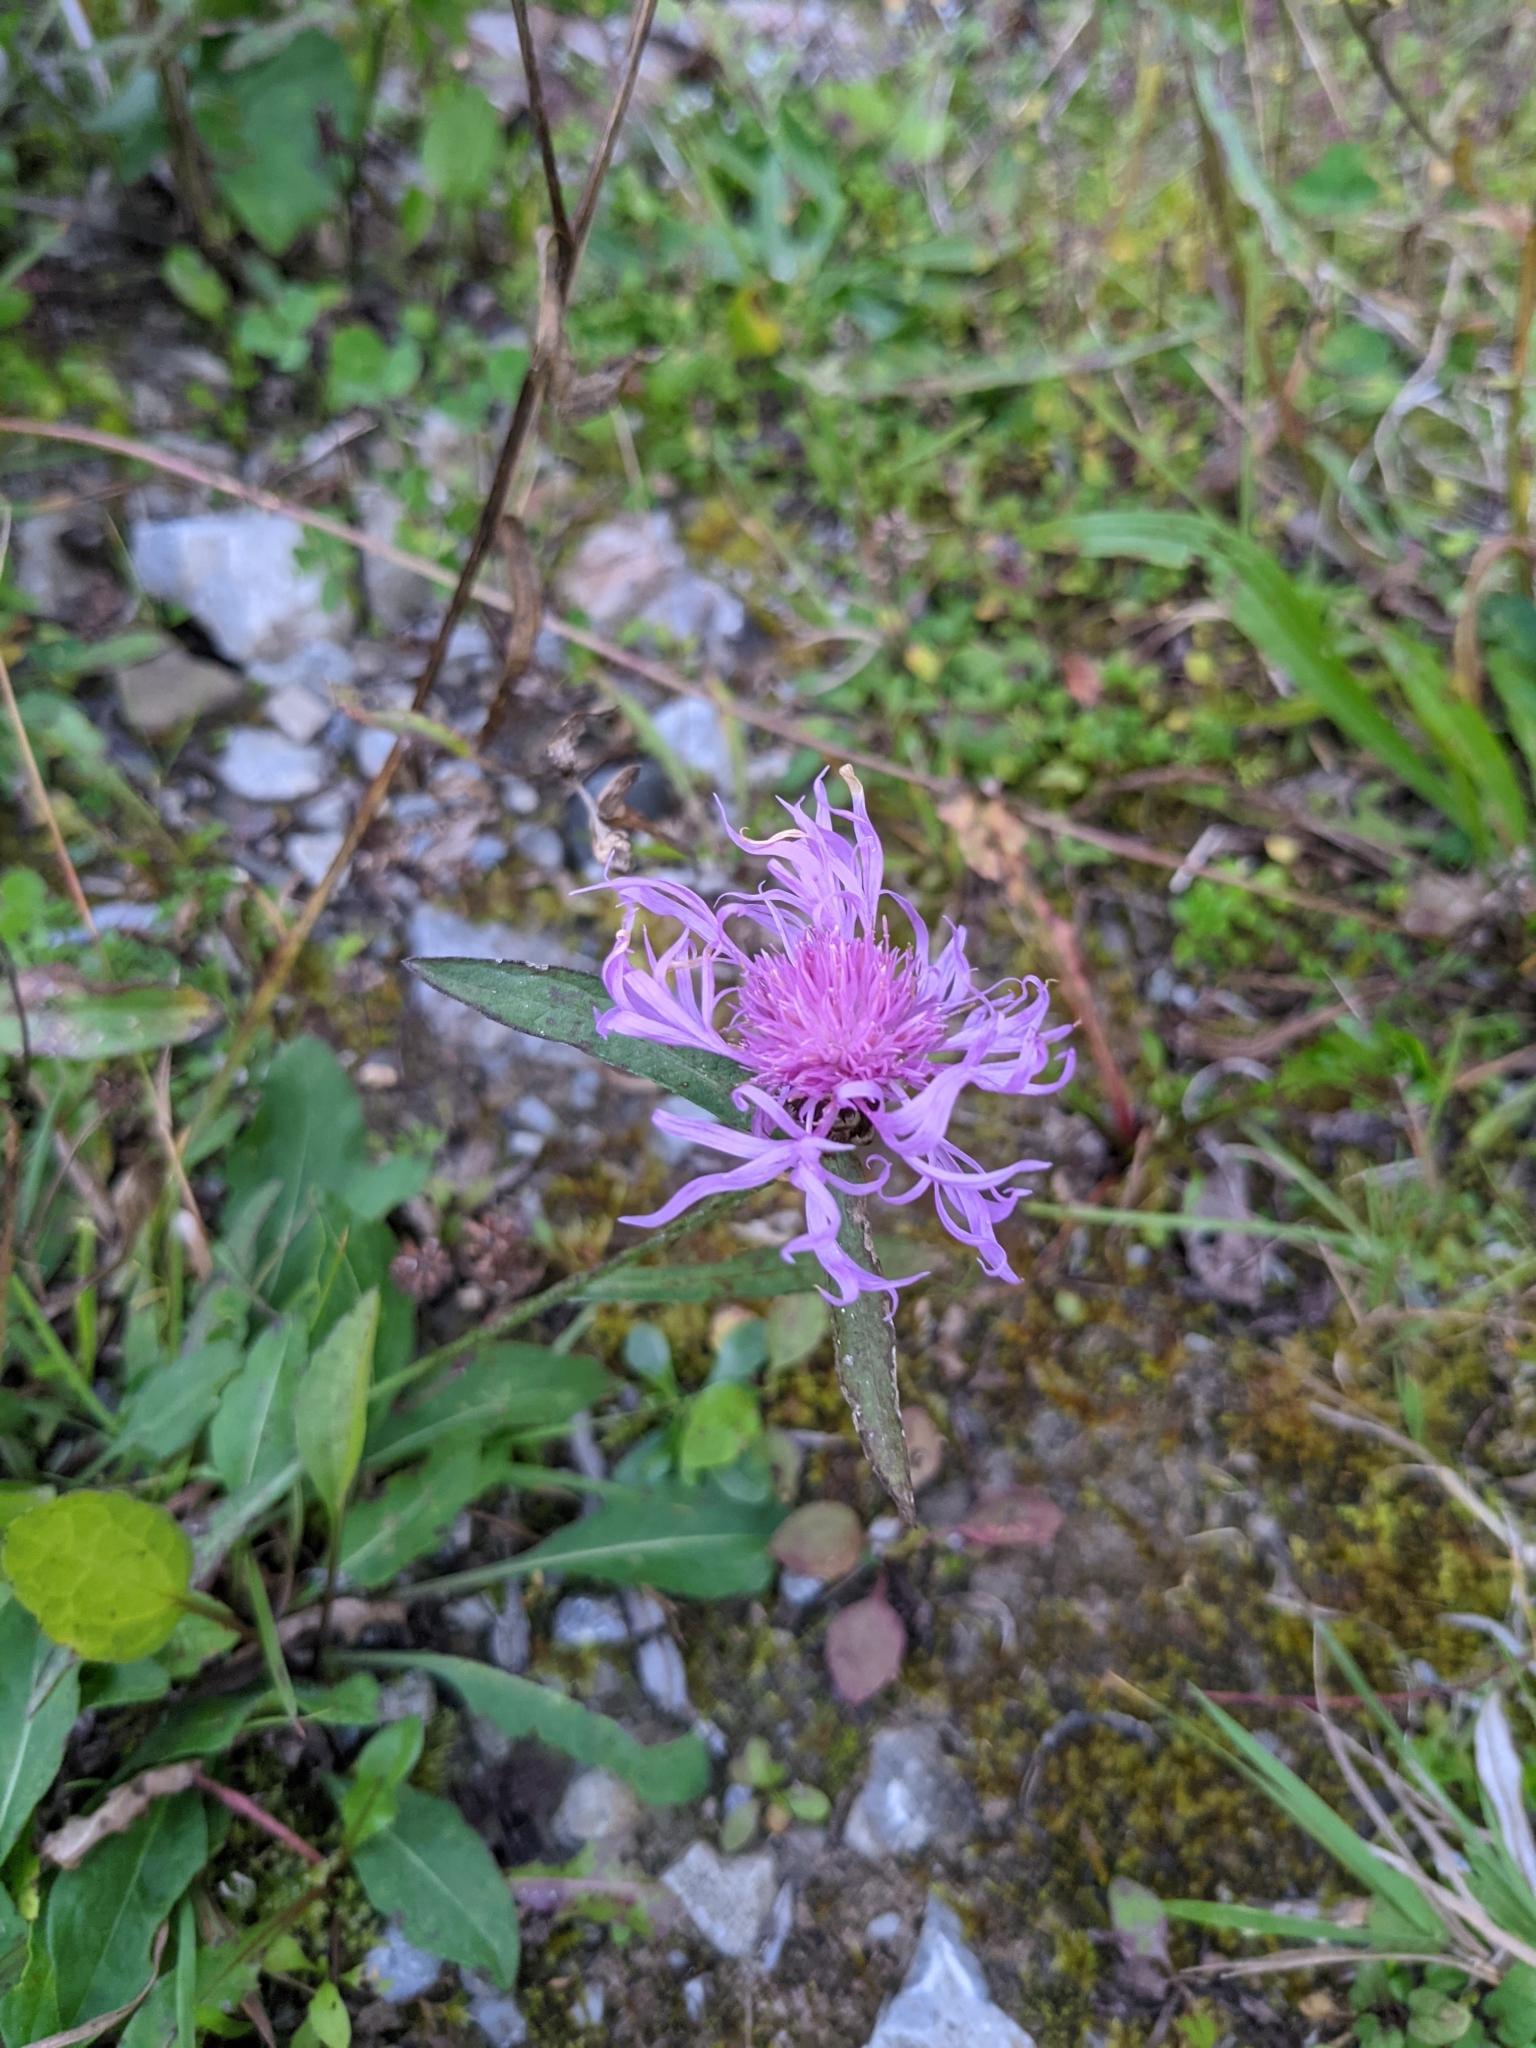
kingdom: Plantae
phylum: Tracheophyta
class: Magnoliopsida
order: Asterales
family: Asteraceae
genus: Centaurea
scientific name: Centaurea jacea
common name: Brown knapweed
